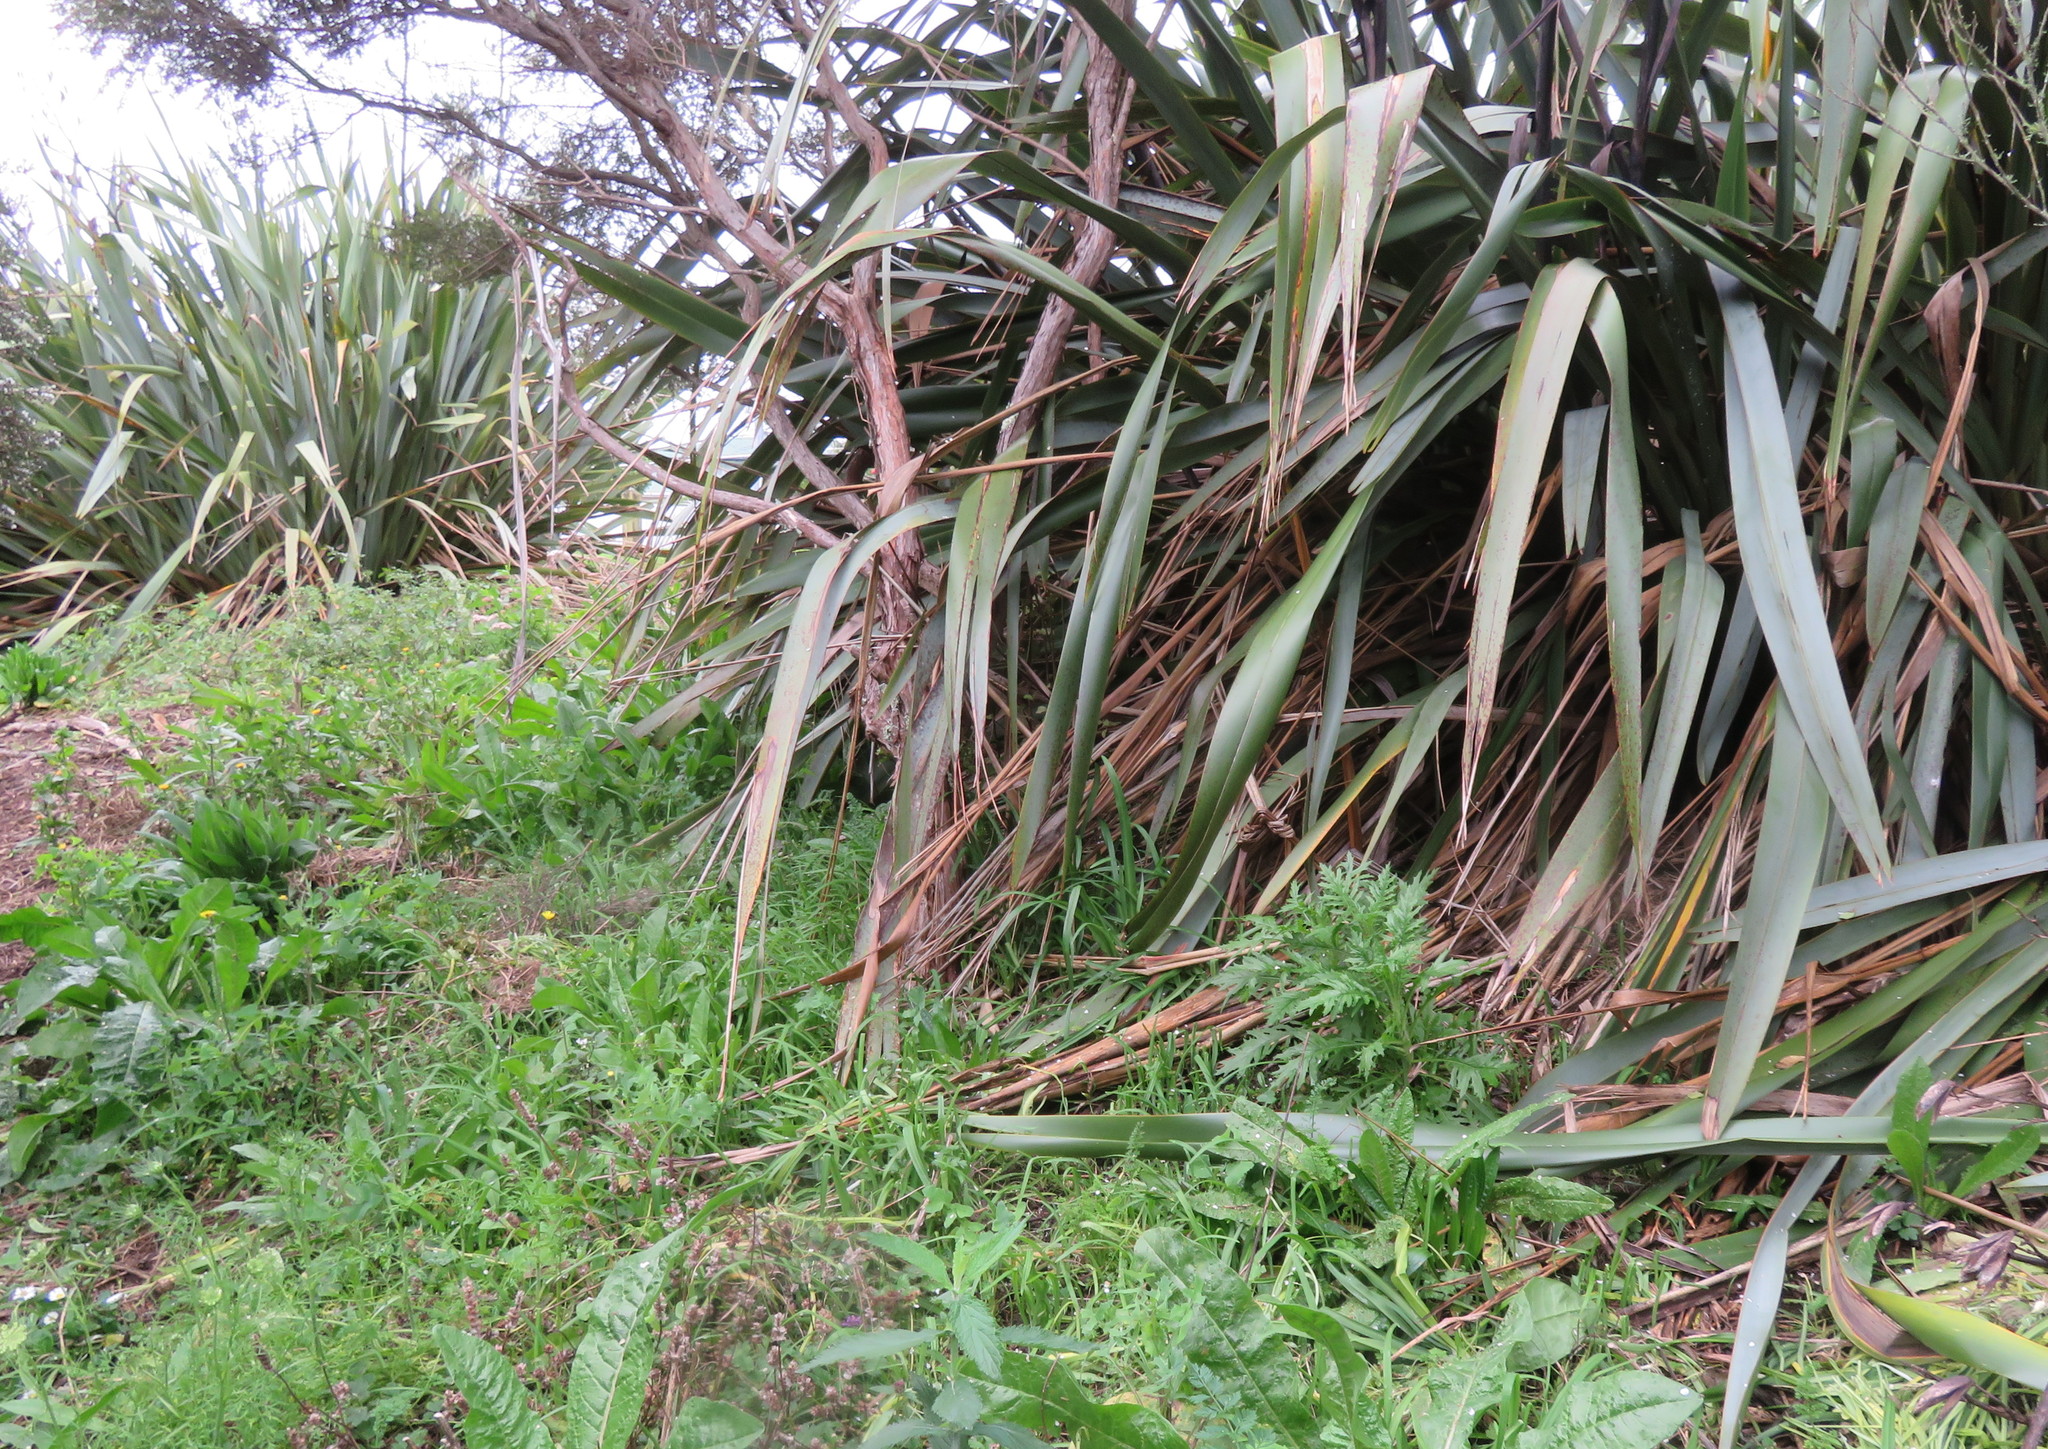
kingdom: Plantae
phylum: Tracheophyta
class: Magnoliopsida
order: Asterales
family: Asteraceae
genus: Senecio
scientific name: Senecio esleri
